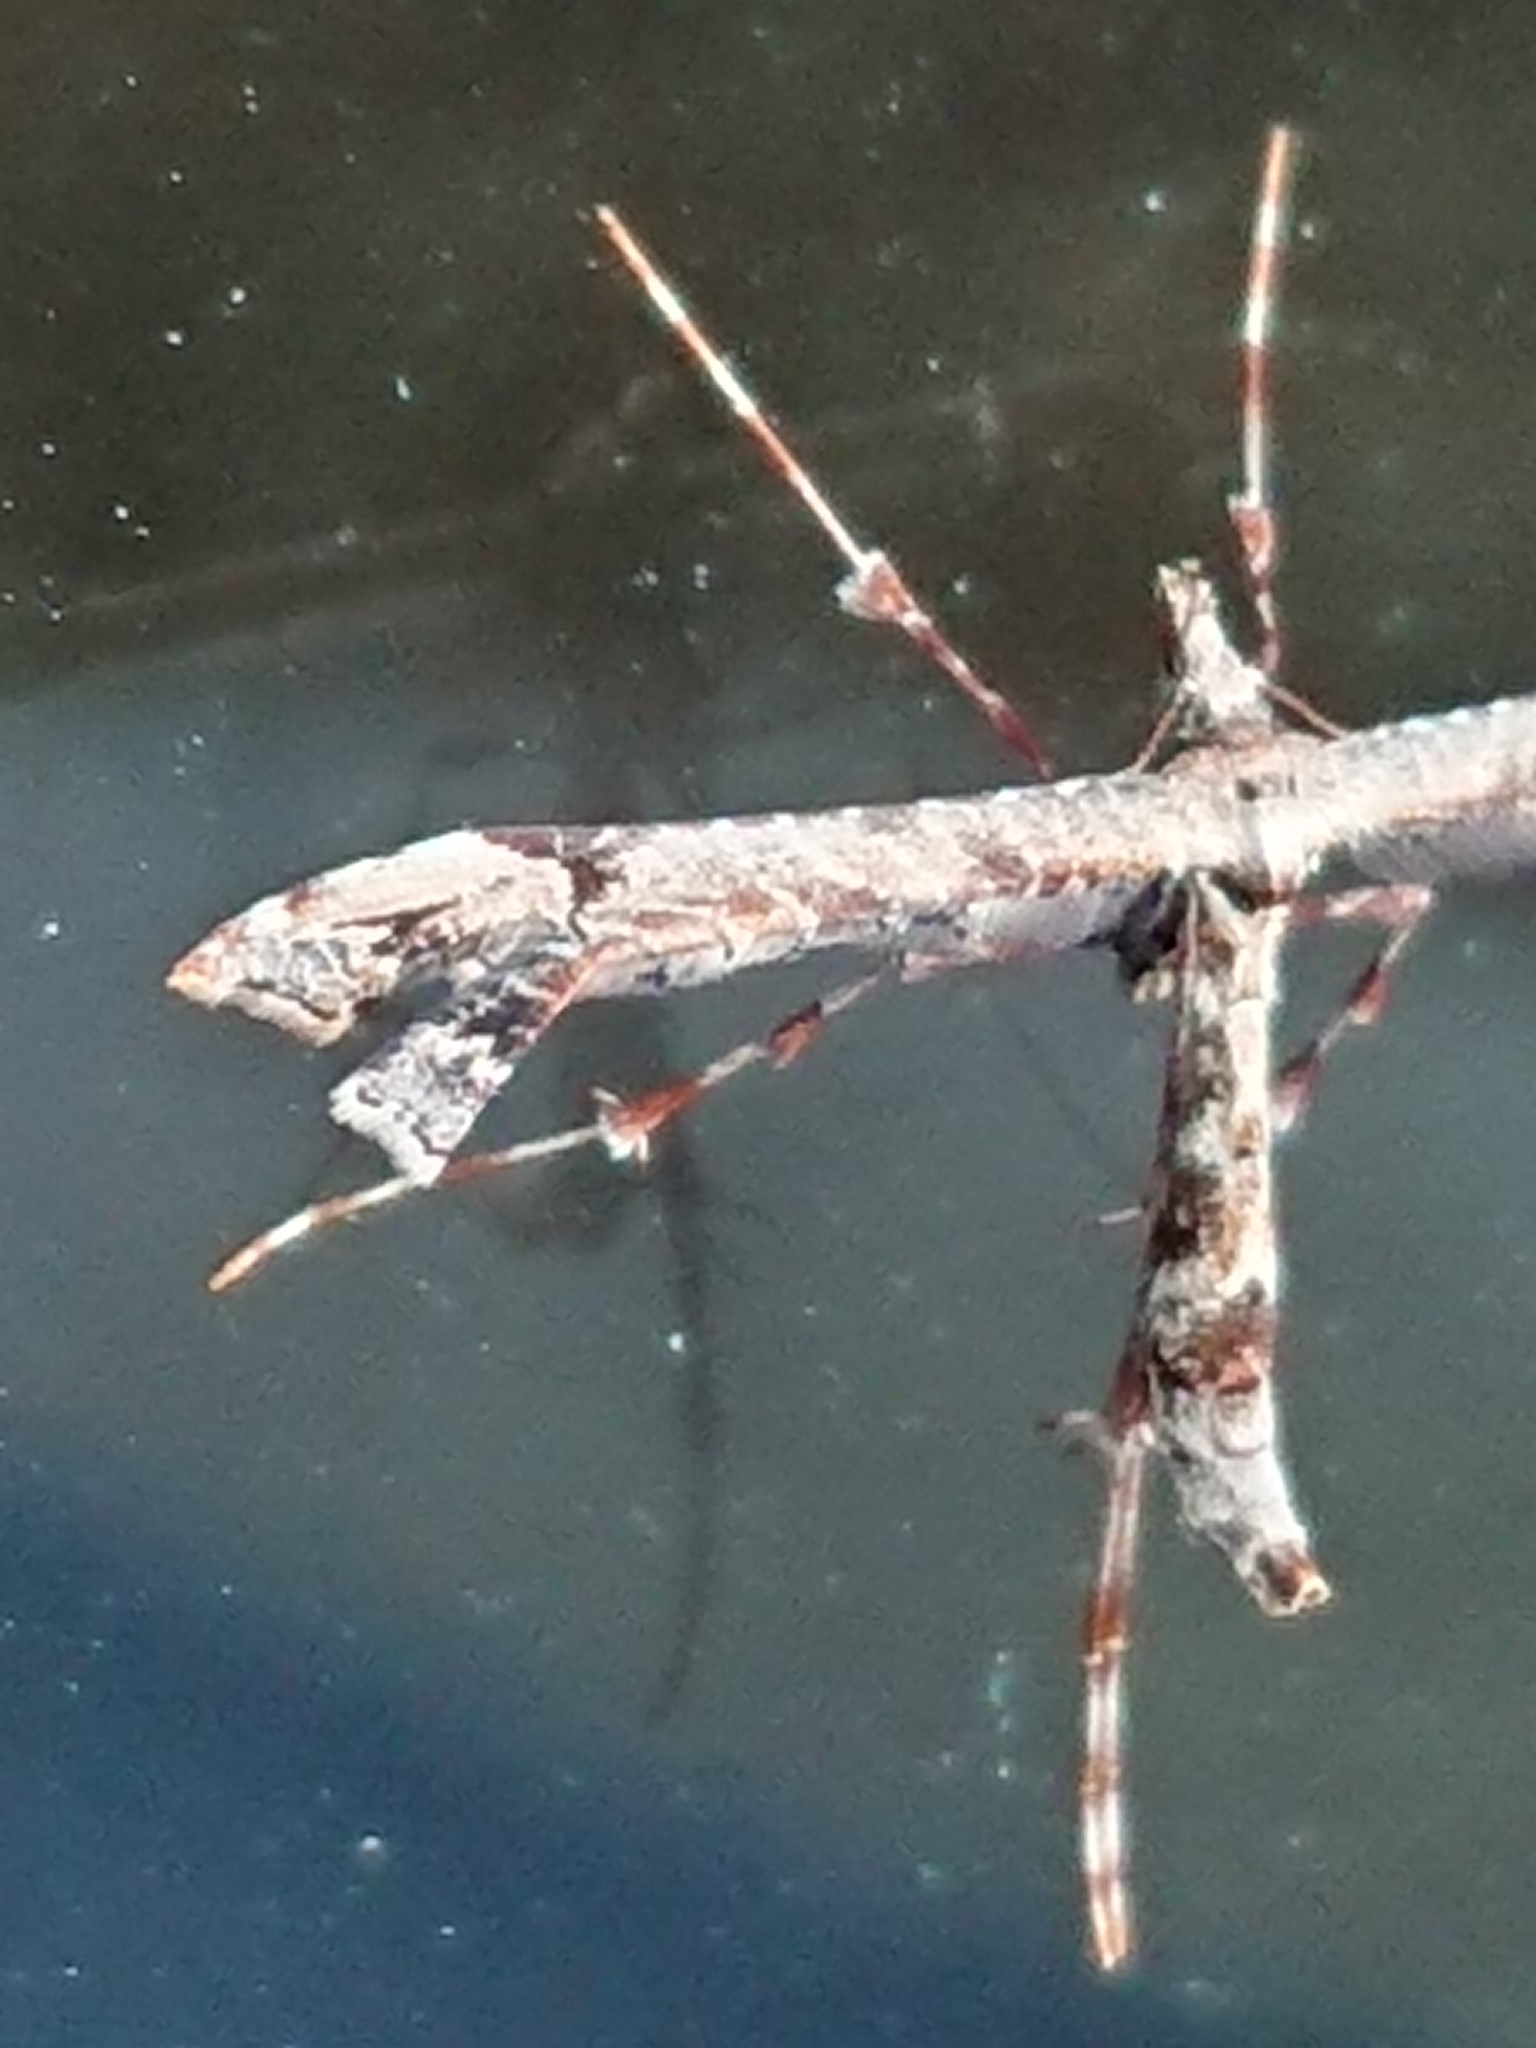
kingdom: Animalia
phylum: Arthropoda
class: Insecta
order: Lepidoptera
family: Pterophoridae
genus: Amblyptilia
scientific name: Amblyptilia repletalis
